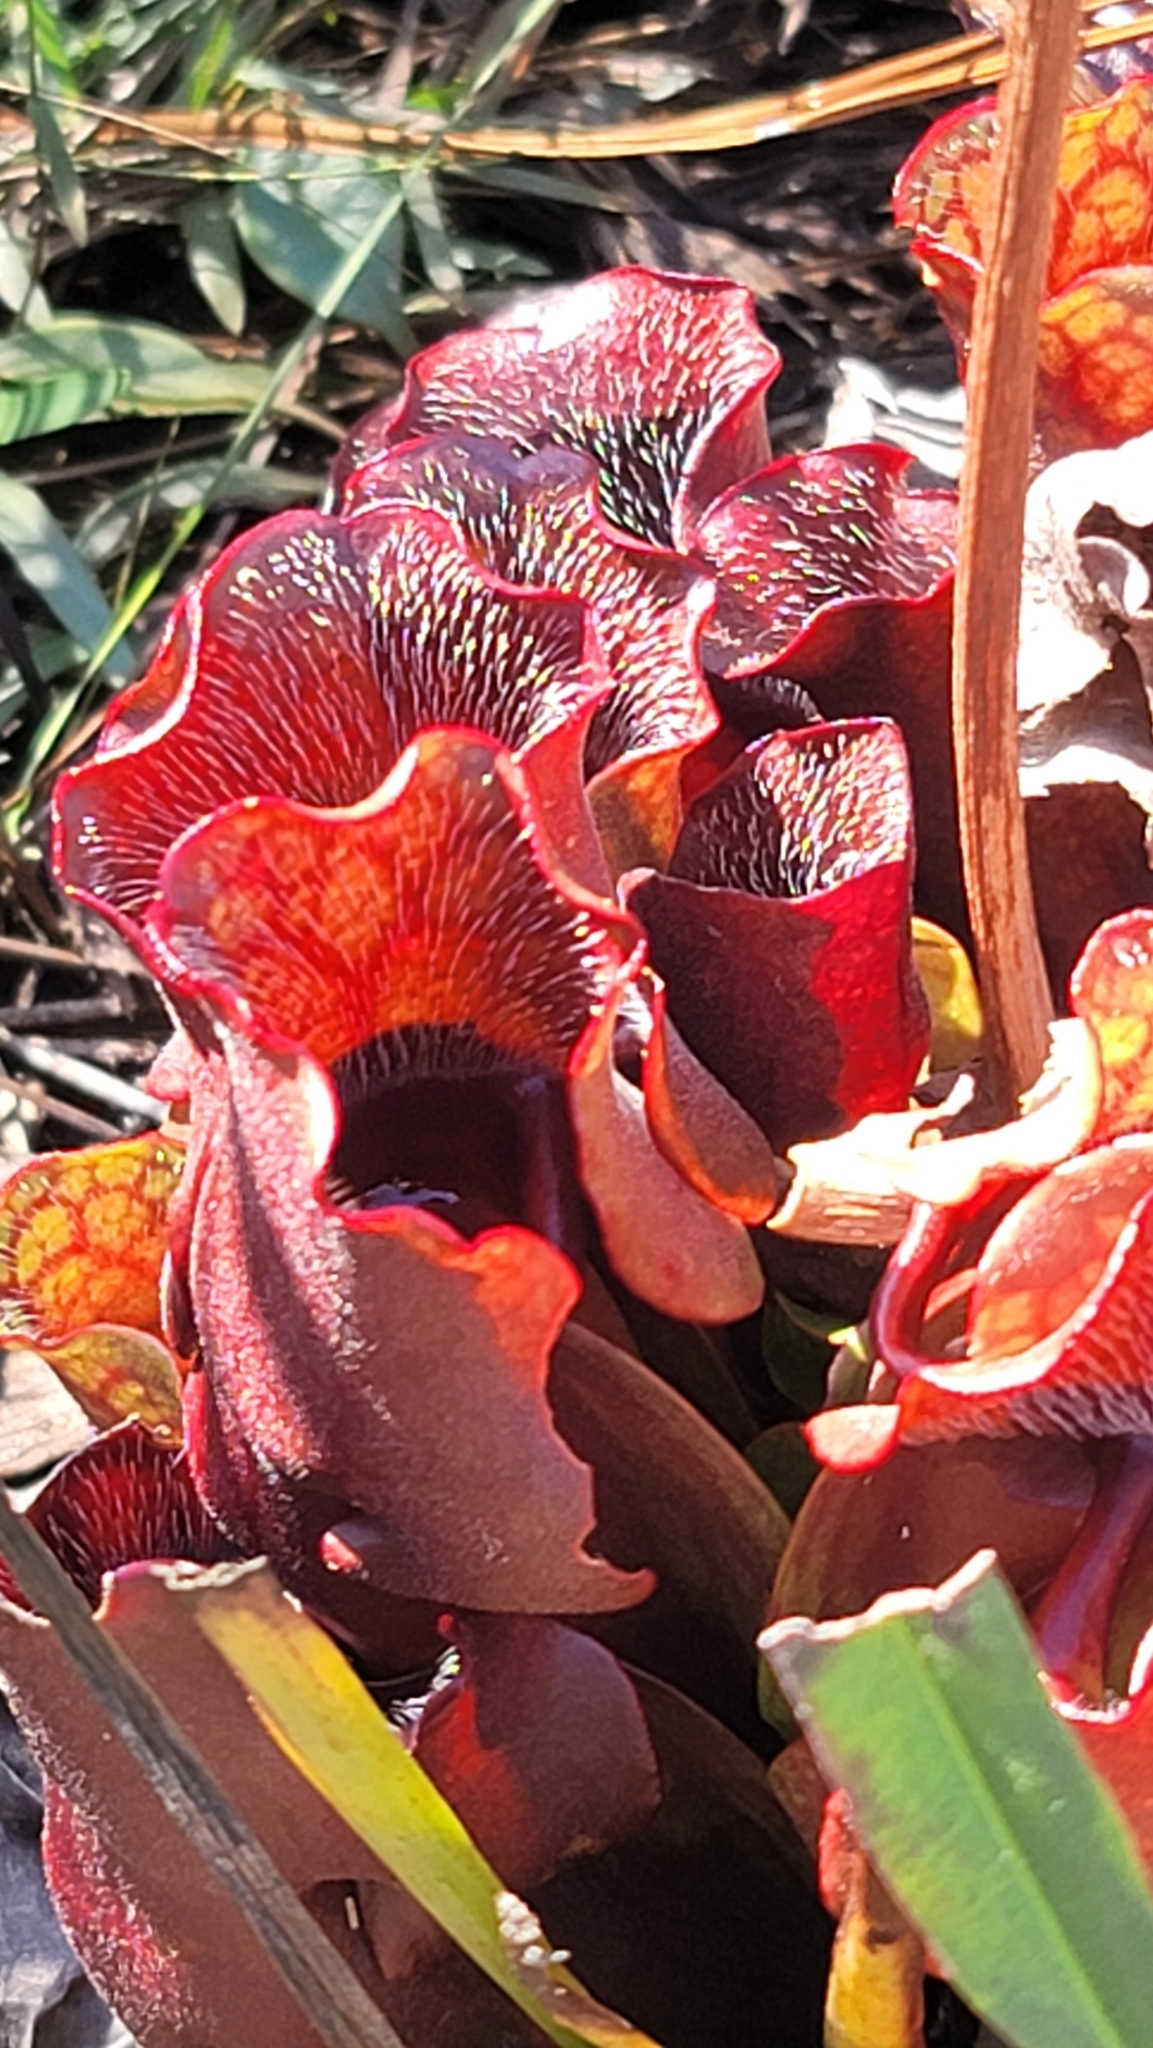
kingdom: Plantae
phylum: Tracheophyta
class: Magnoliopsida
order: Ericales
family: Sarraceniaceae
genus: Sarracenia
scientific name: Sarracenia purpurea
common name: Pitcherplant
